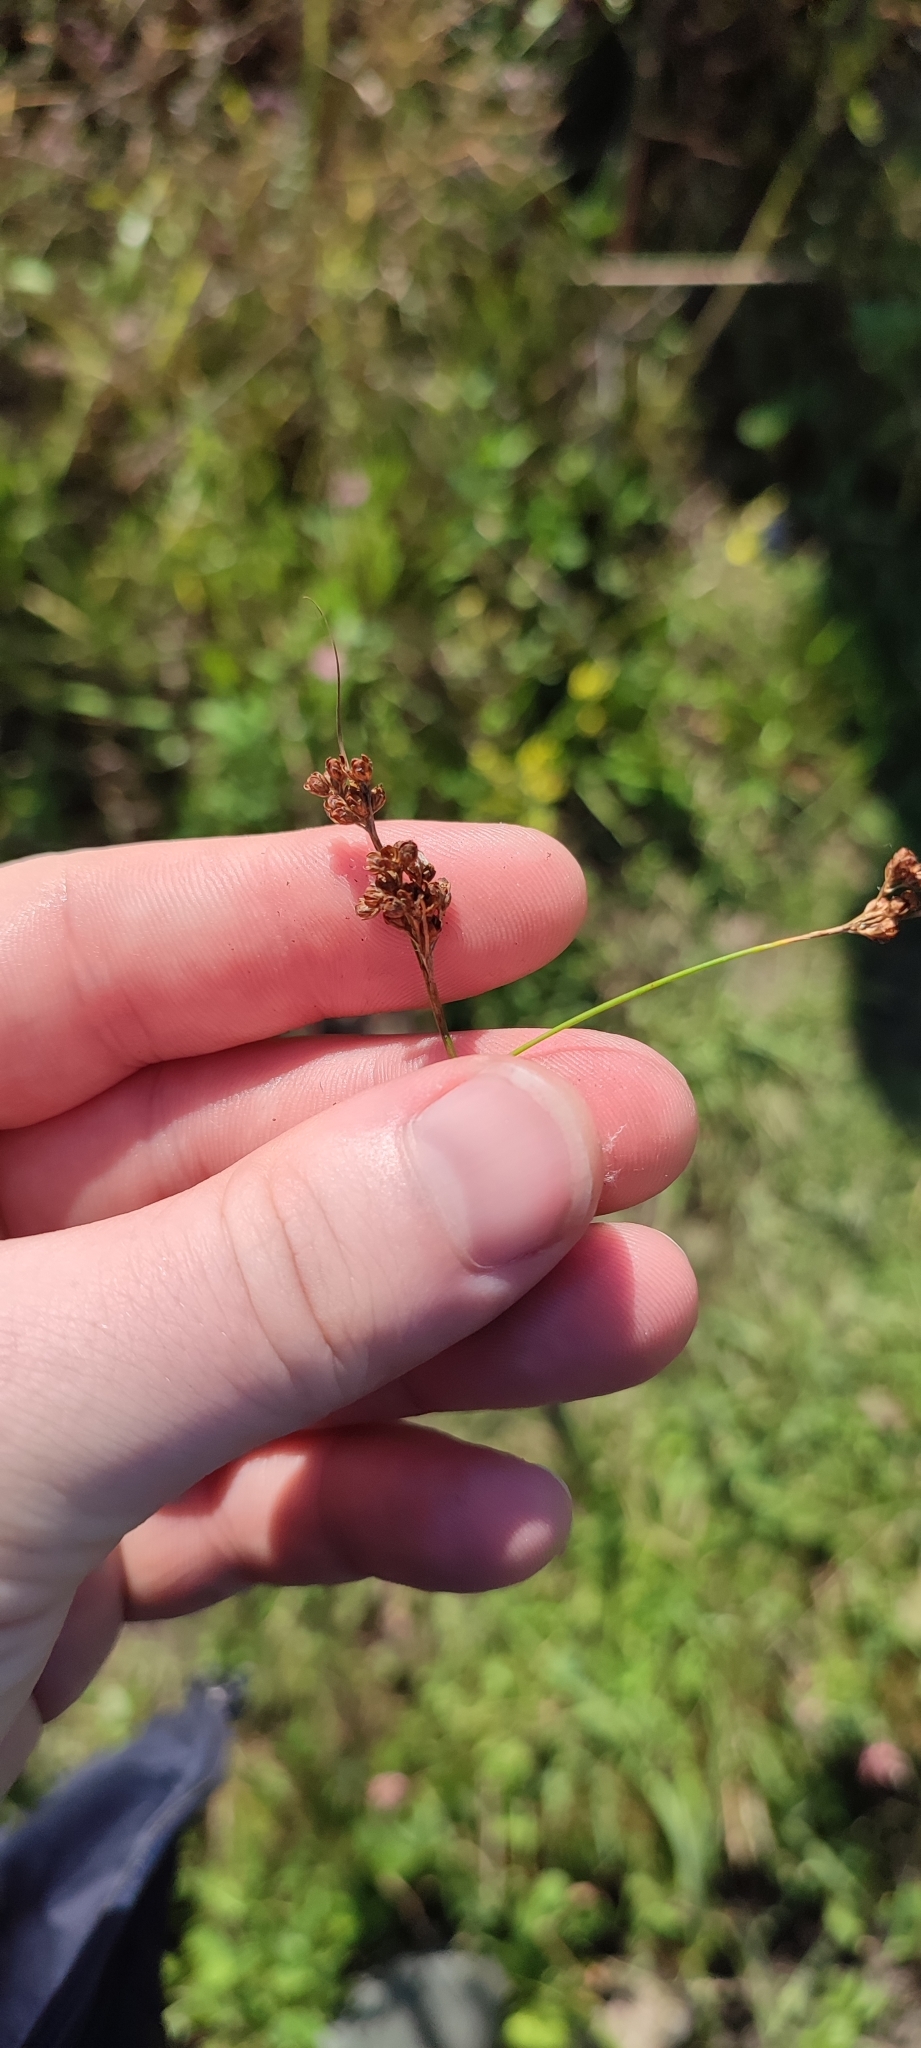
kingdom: Plantae
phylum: Tracheophyta
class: Liliopsida
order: Poales
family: Juncaceae
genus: Juncus
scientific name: Juncus compressus
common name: Round-fruited rush
